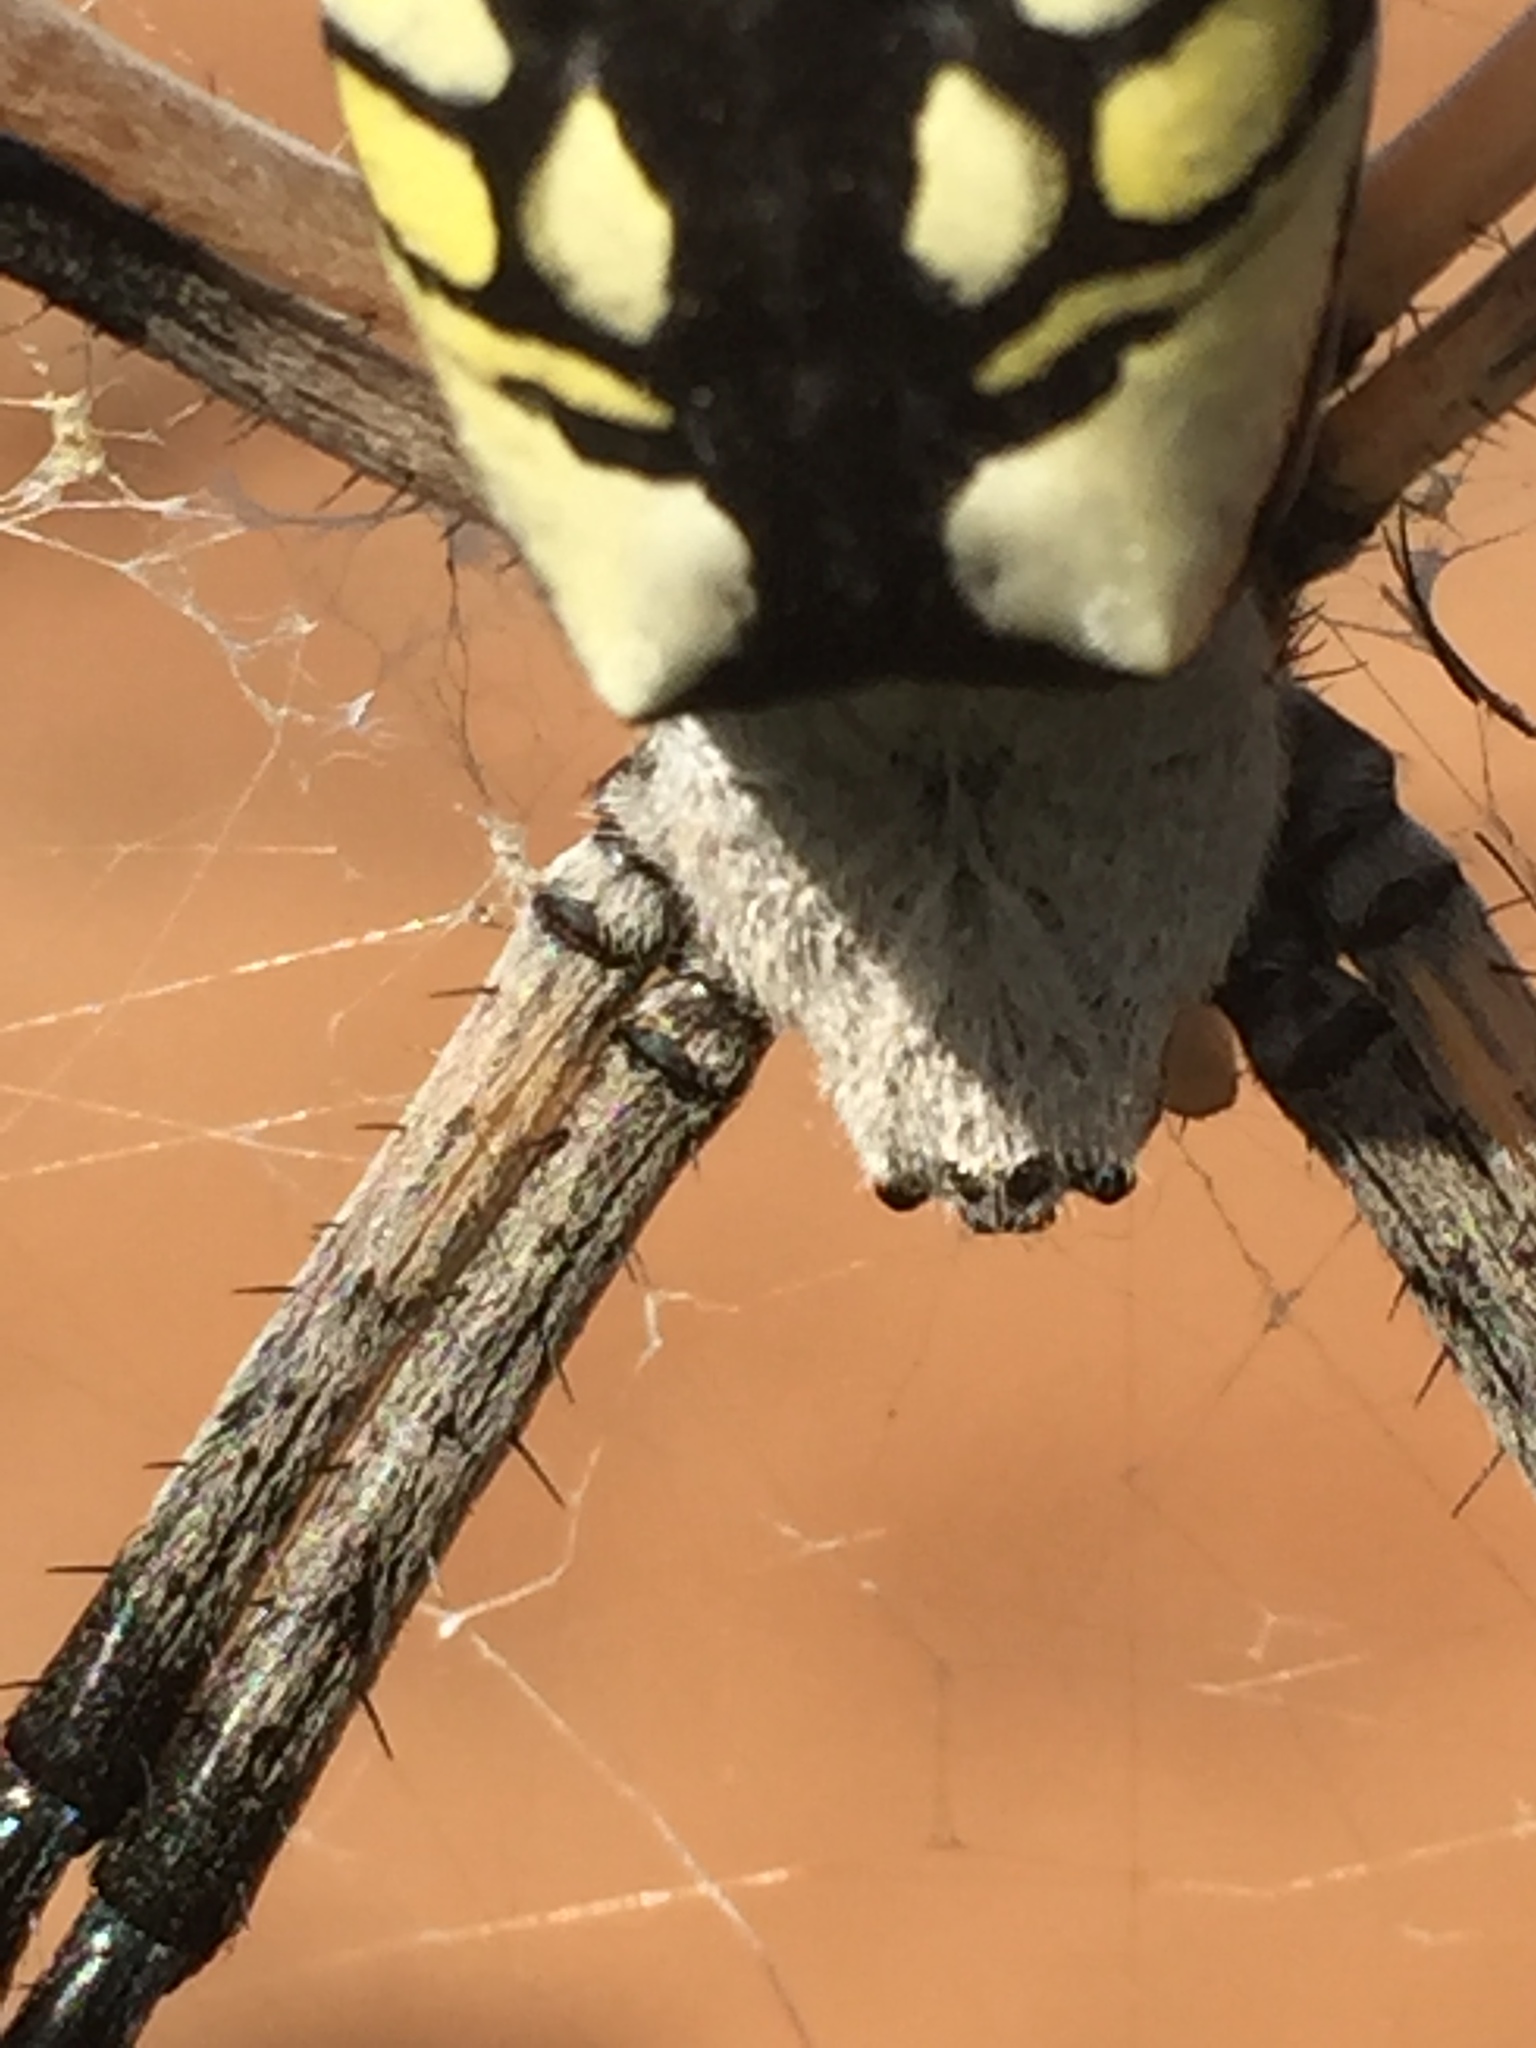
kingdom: Animalia
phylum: Arthropoda
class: Arachnida
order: Araneae
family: Araneidae
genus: Argiope
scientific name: Argiope aurantia
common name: Orb weavers
